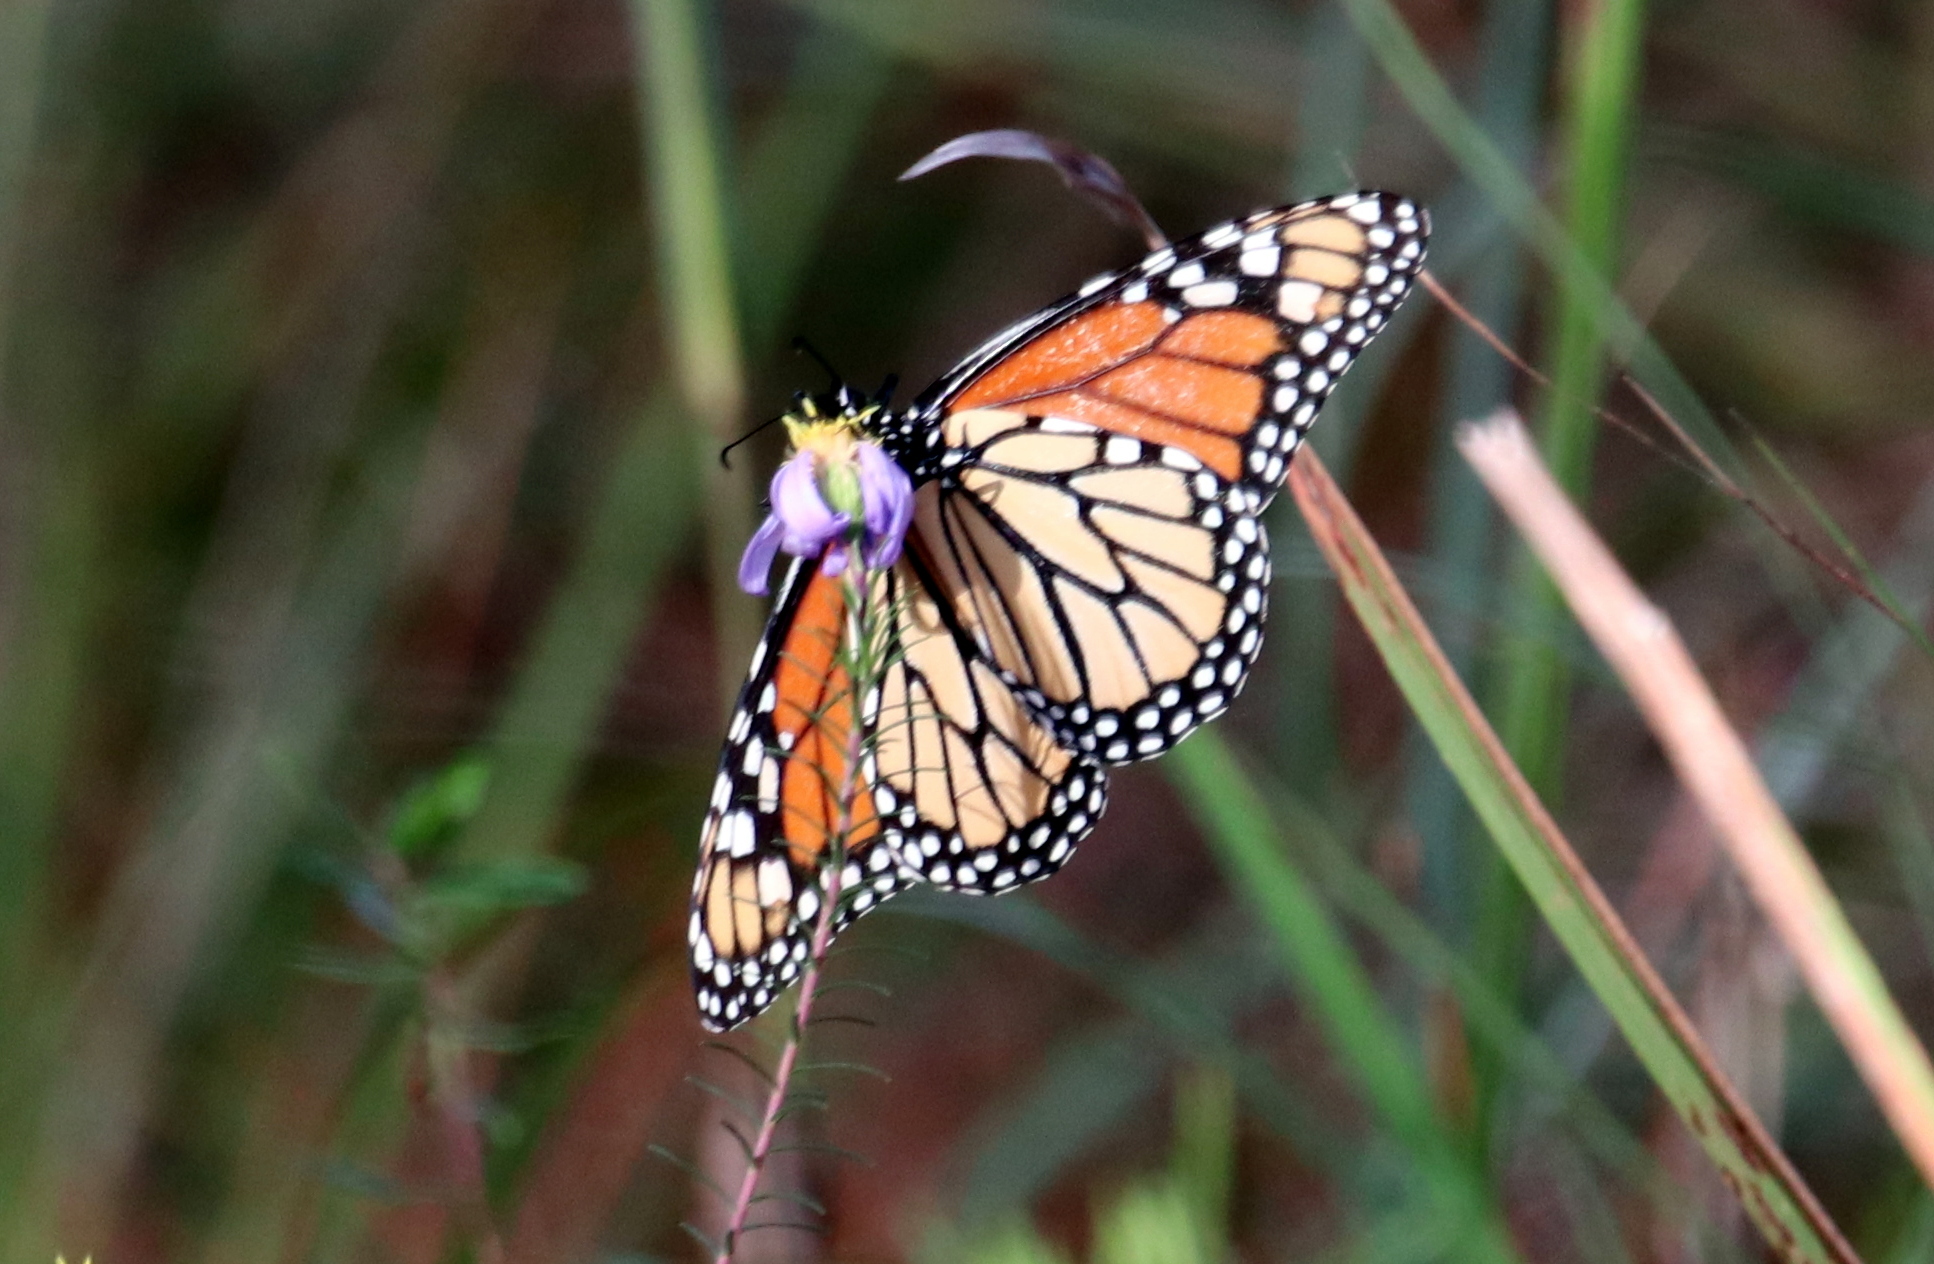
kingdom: Animalia
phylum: Arthropoda
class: Insecta
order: Lepidoptera
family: Nymphalidae
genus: Danaus
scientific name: Danaus plexippus
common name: Monarch
